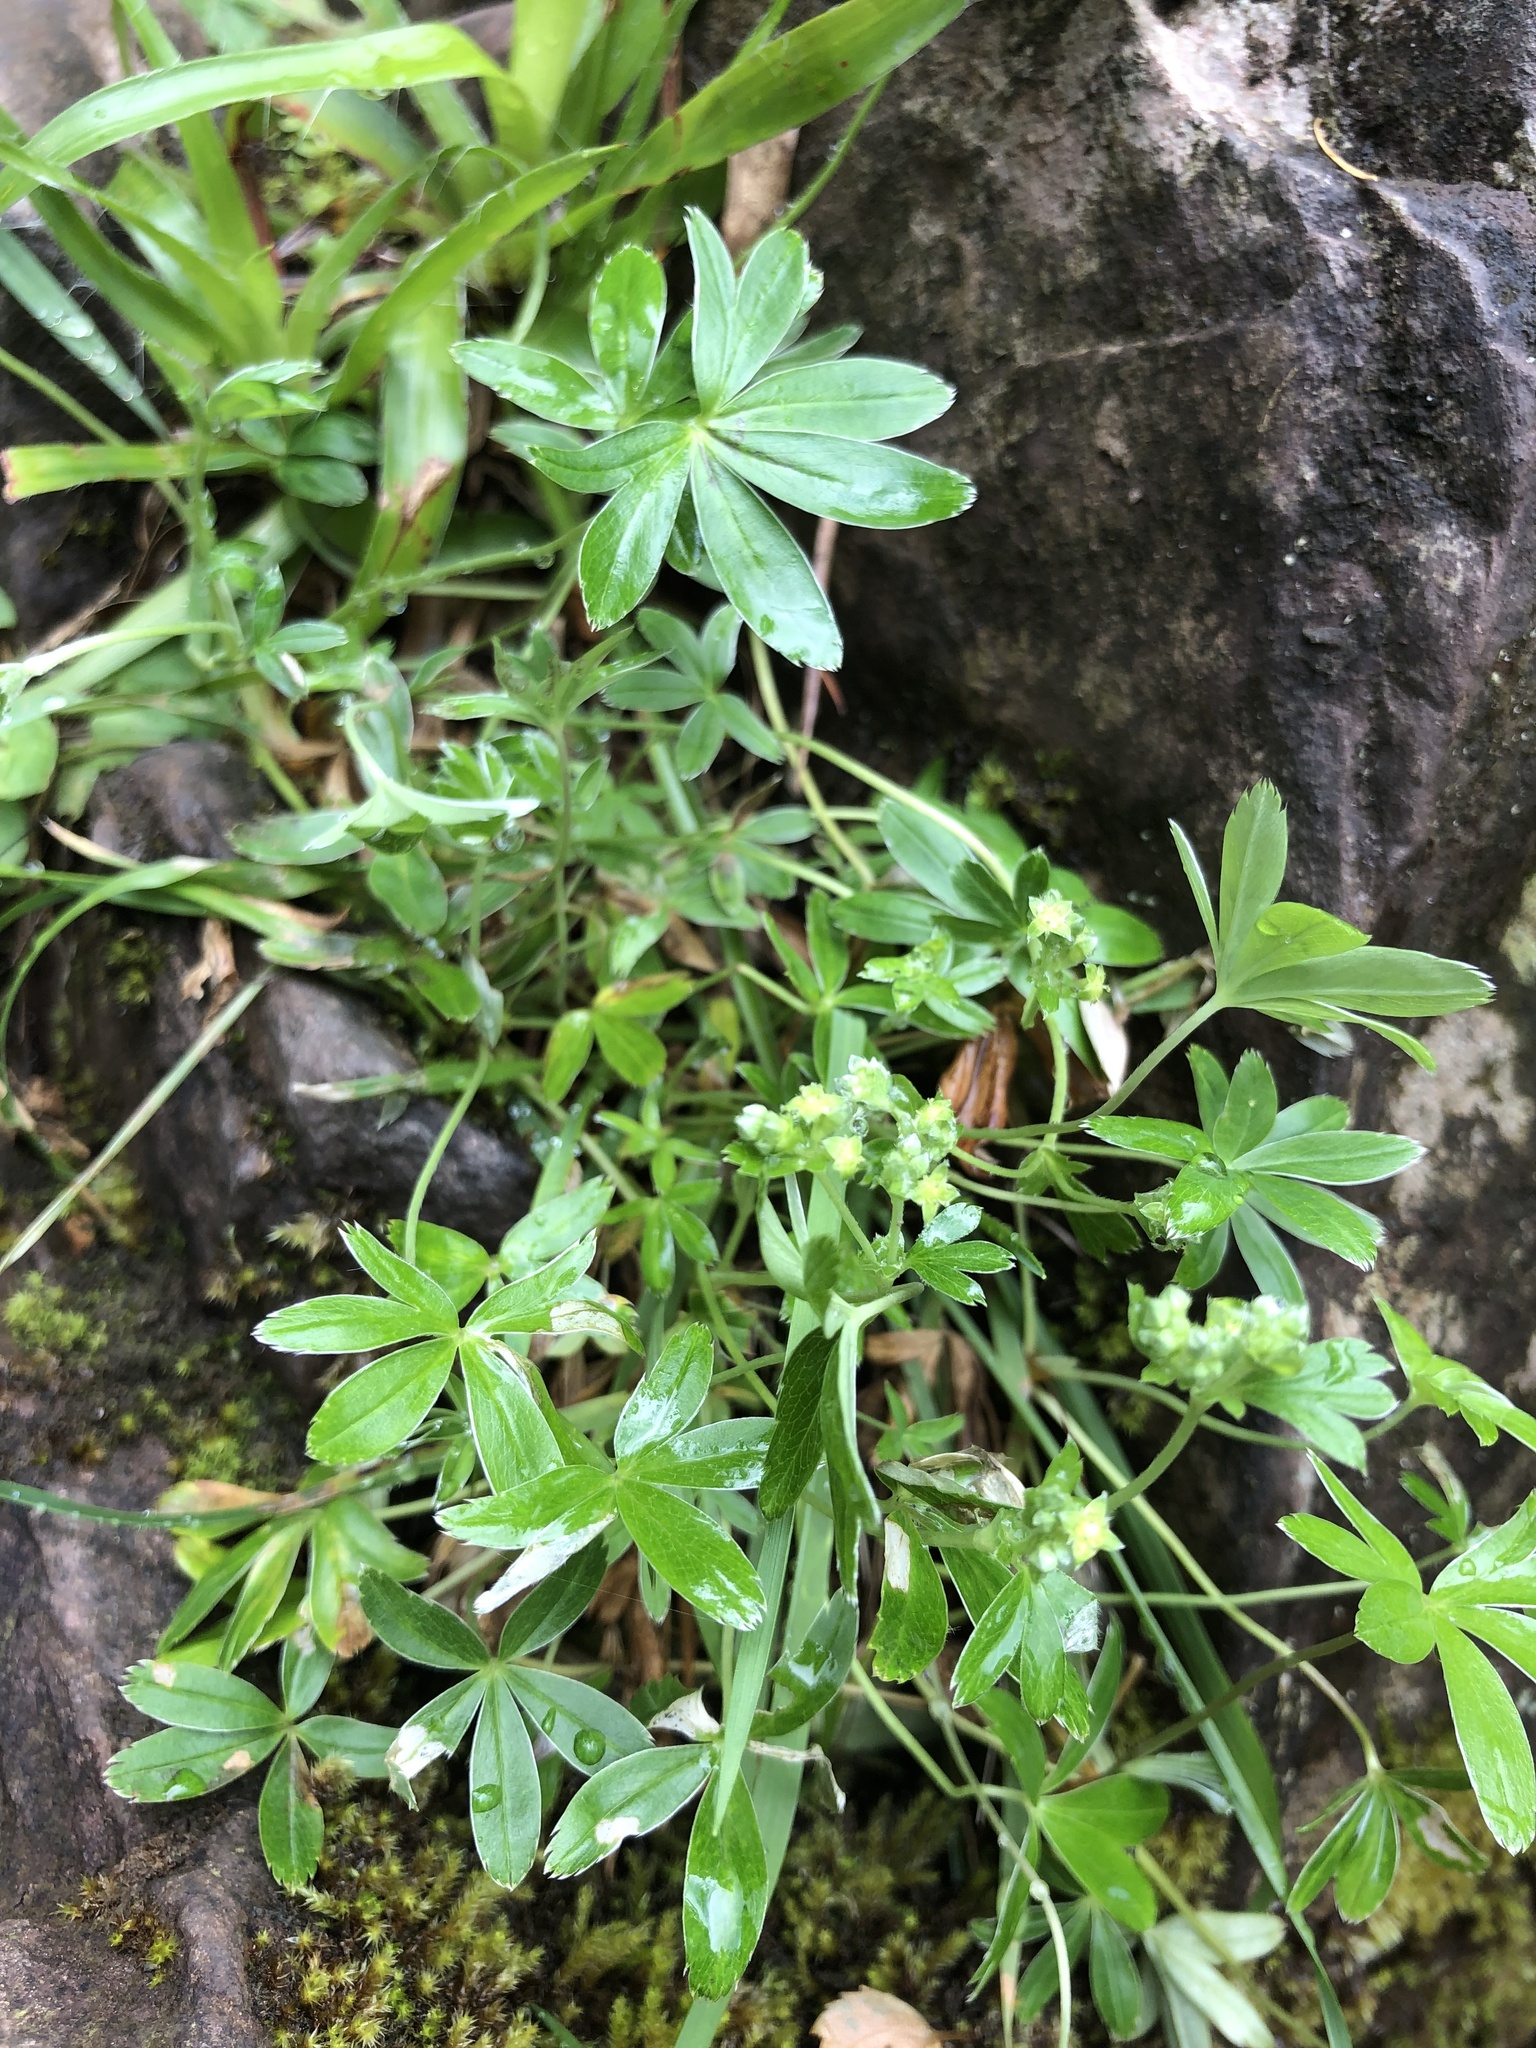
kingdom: Plantae
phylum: Tracheophyta
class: Magnoliopsida
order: Rosales
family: Rosaceae
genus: Alchemilla
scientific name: Alchemilla alpina
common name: Alpine lady's-mantle
